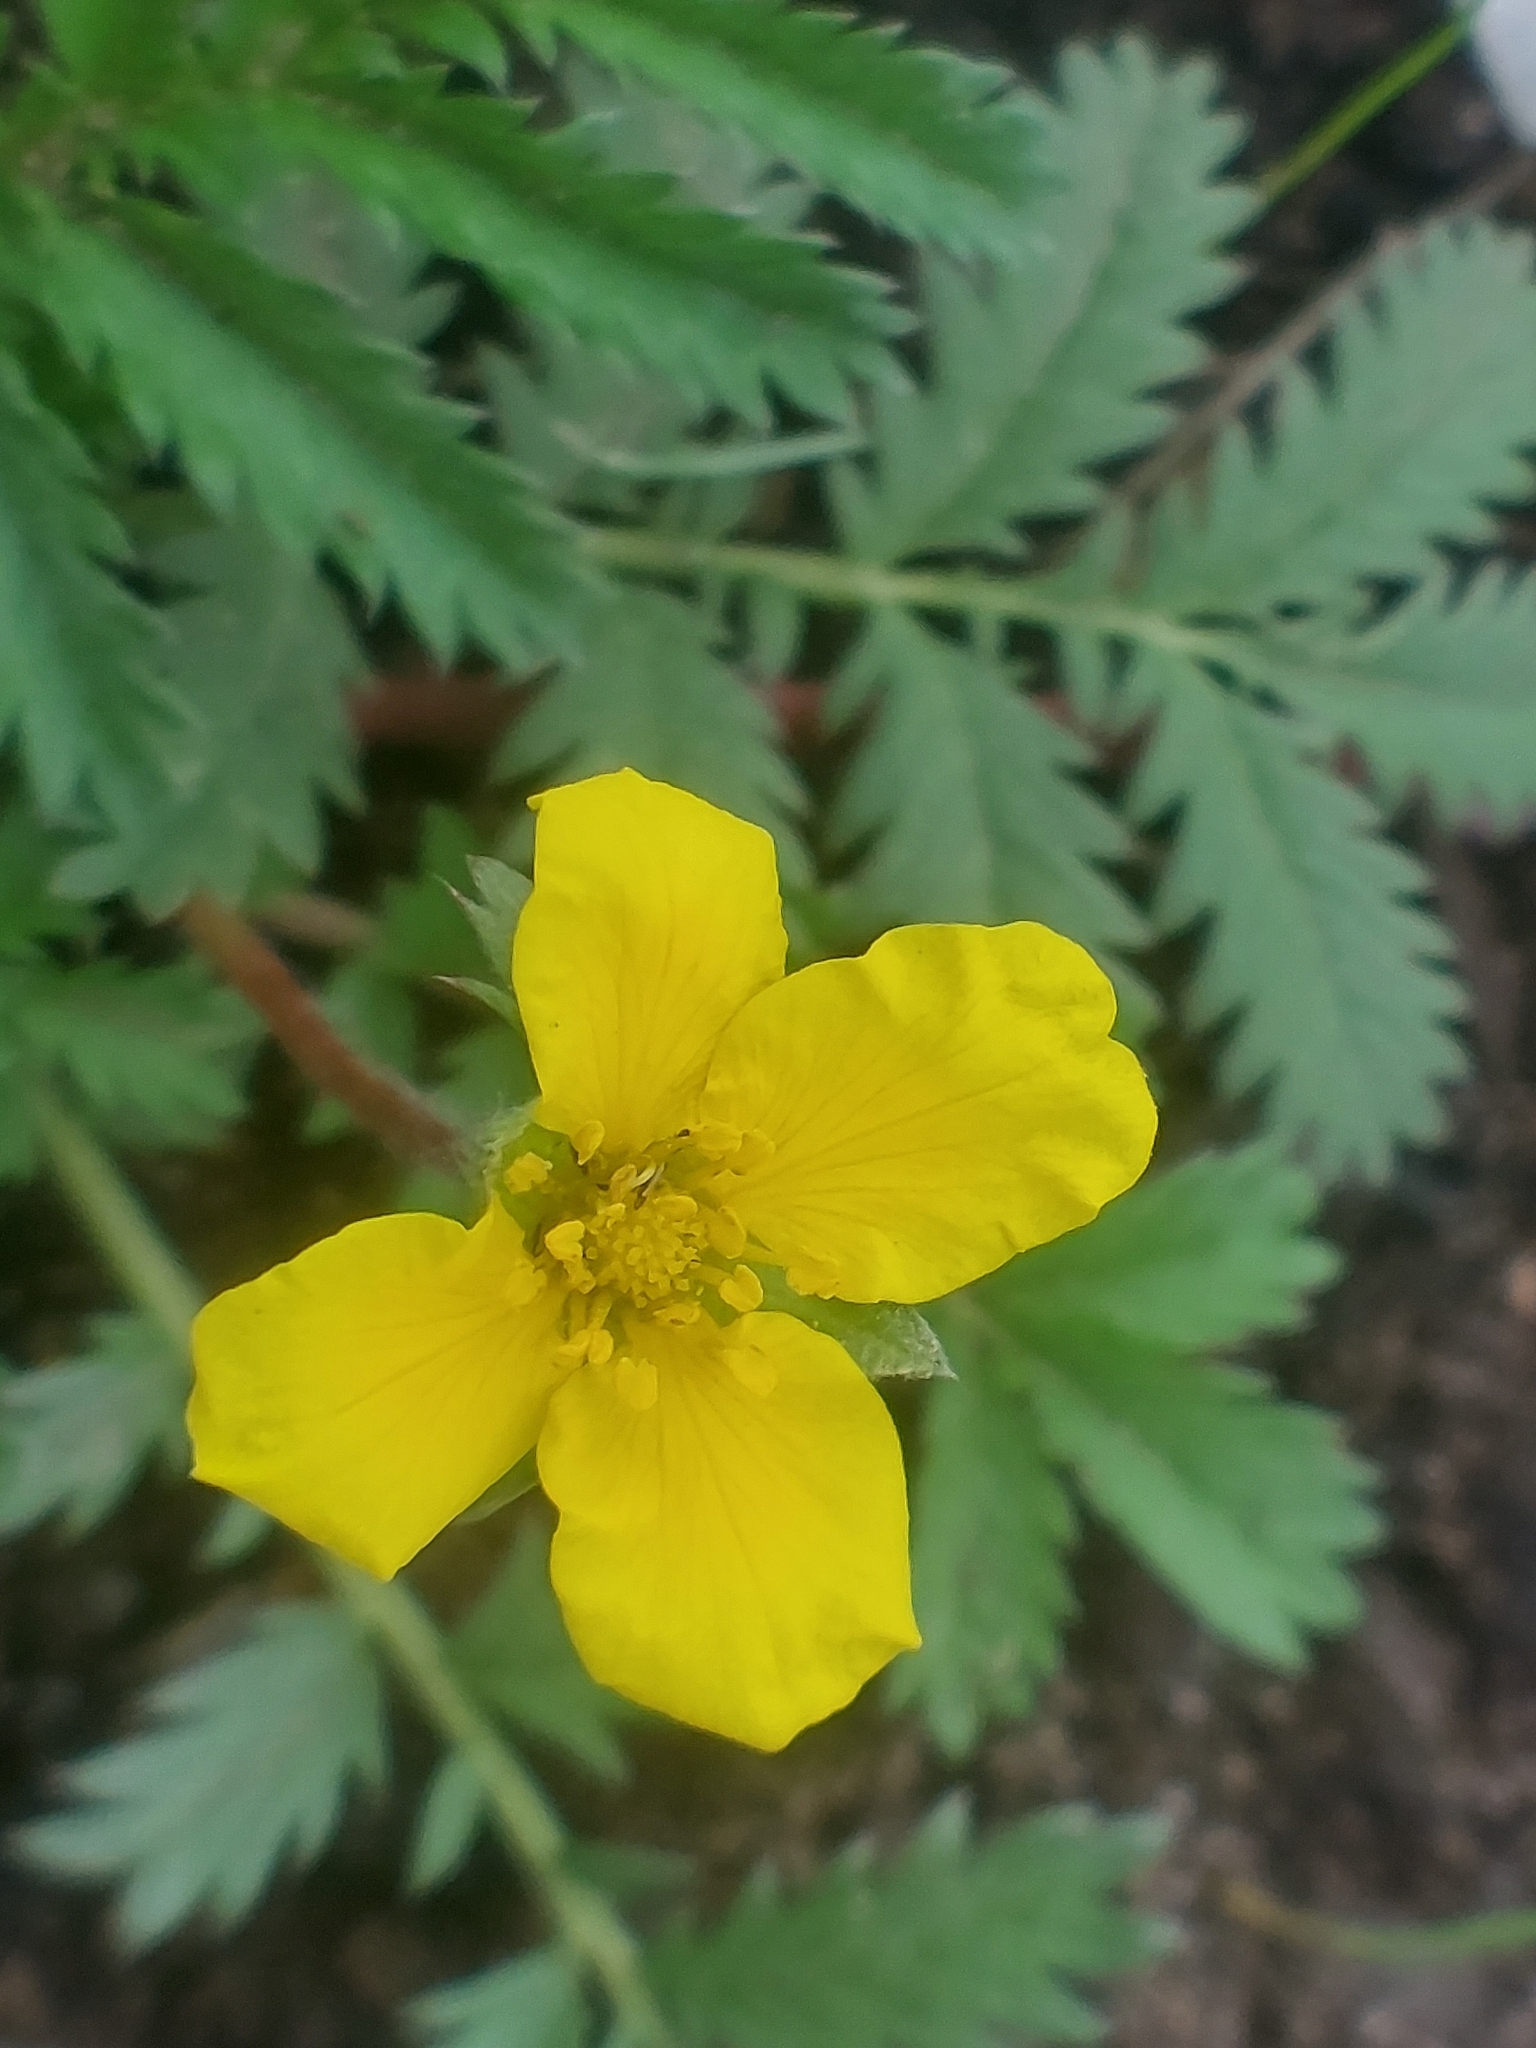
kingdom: Plantae
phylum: Tracheophyta
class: Magnoliopsida
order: Rosales
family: Rosaceae
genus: Argentina
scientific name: Argentina anserina
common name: Common silverweed
